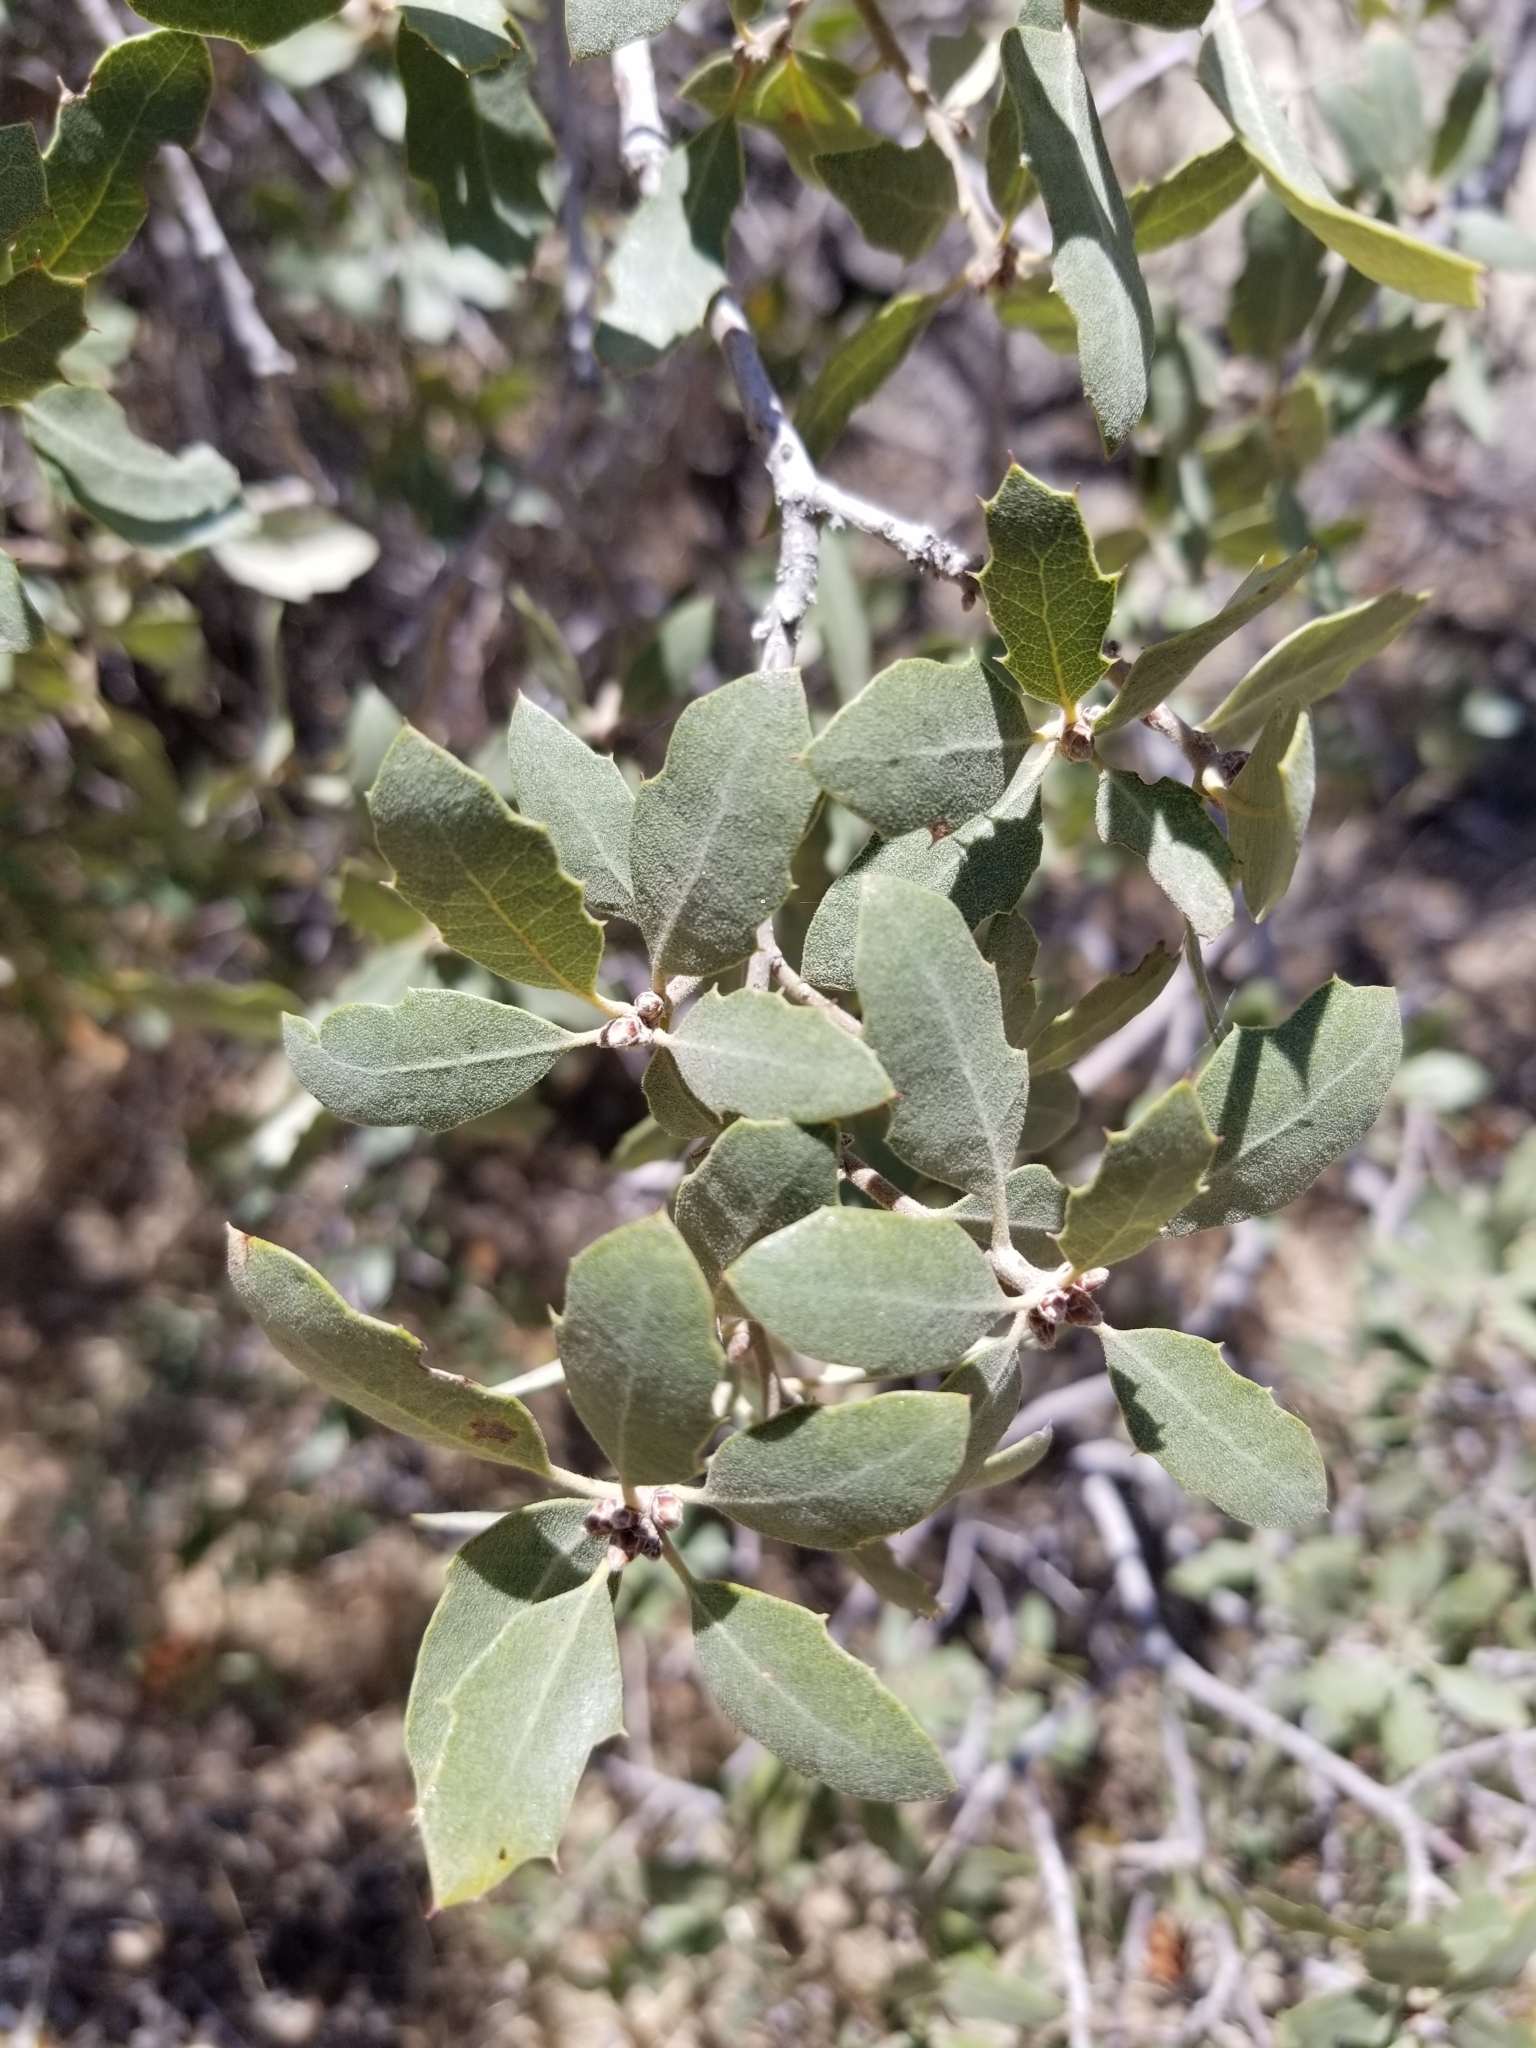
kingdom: Plantae
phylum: Tracheophyta
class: Magnoliopsida
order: Fagales
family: Fagaceae
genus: Quercus
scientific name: Quercus cornelius-mulleri
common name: Muller oak
